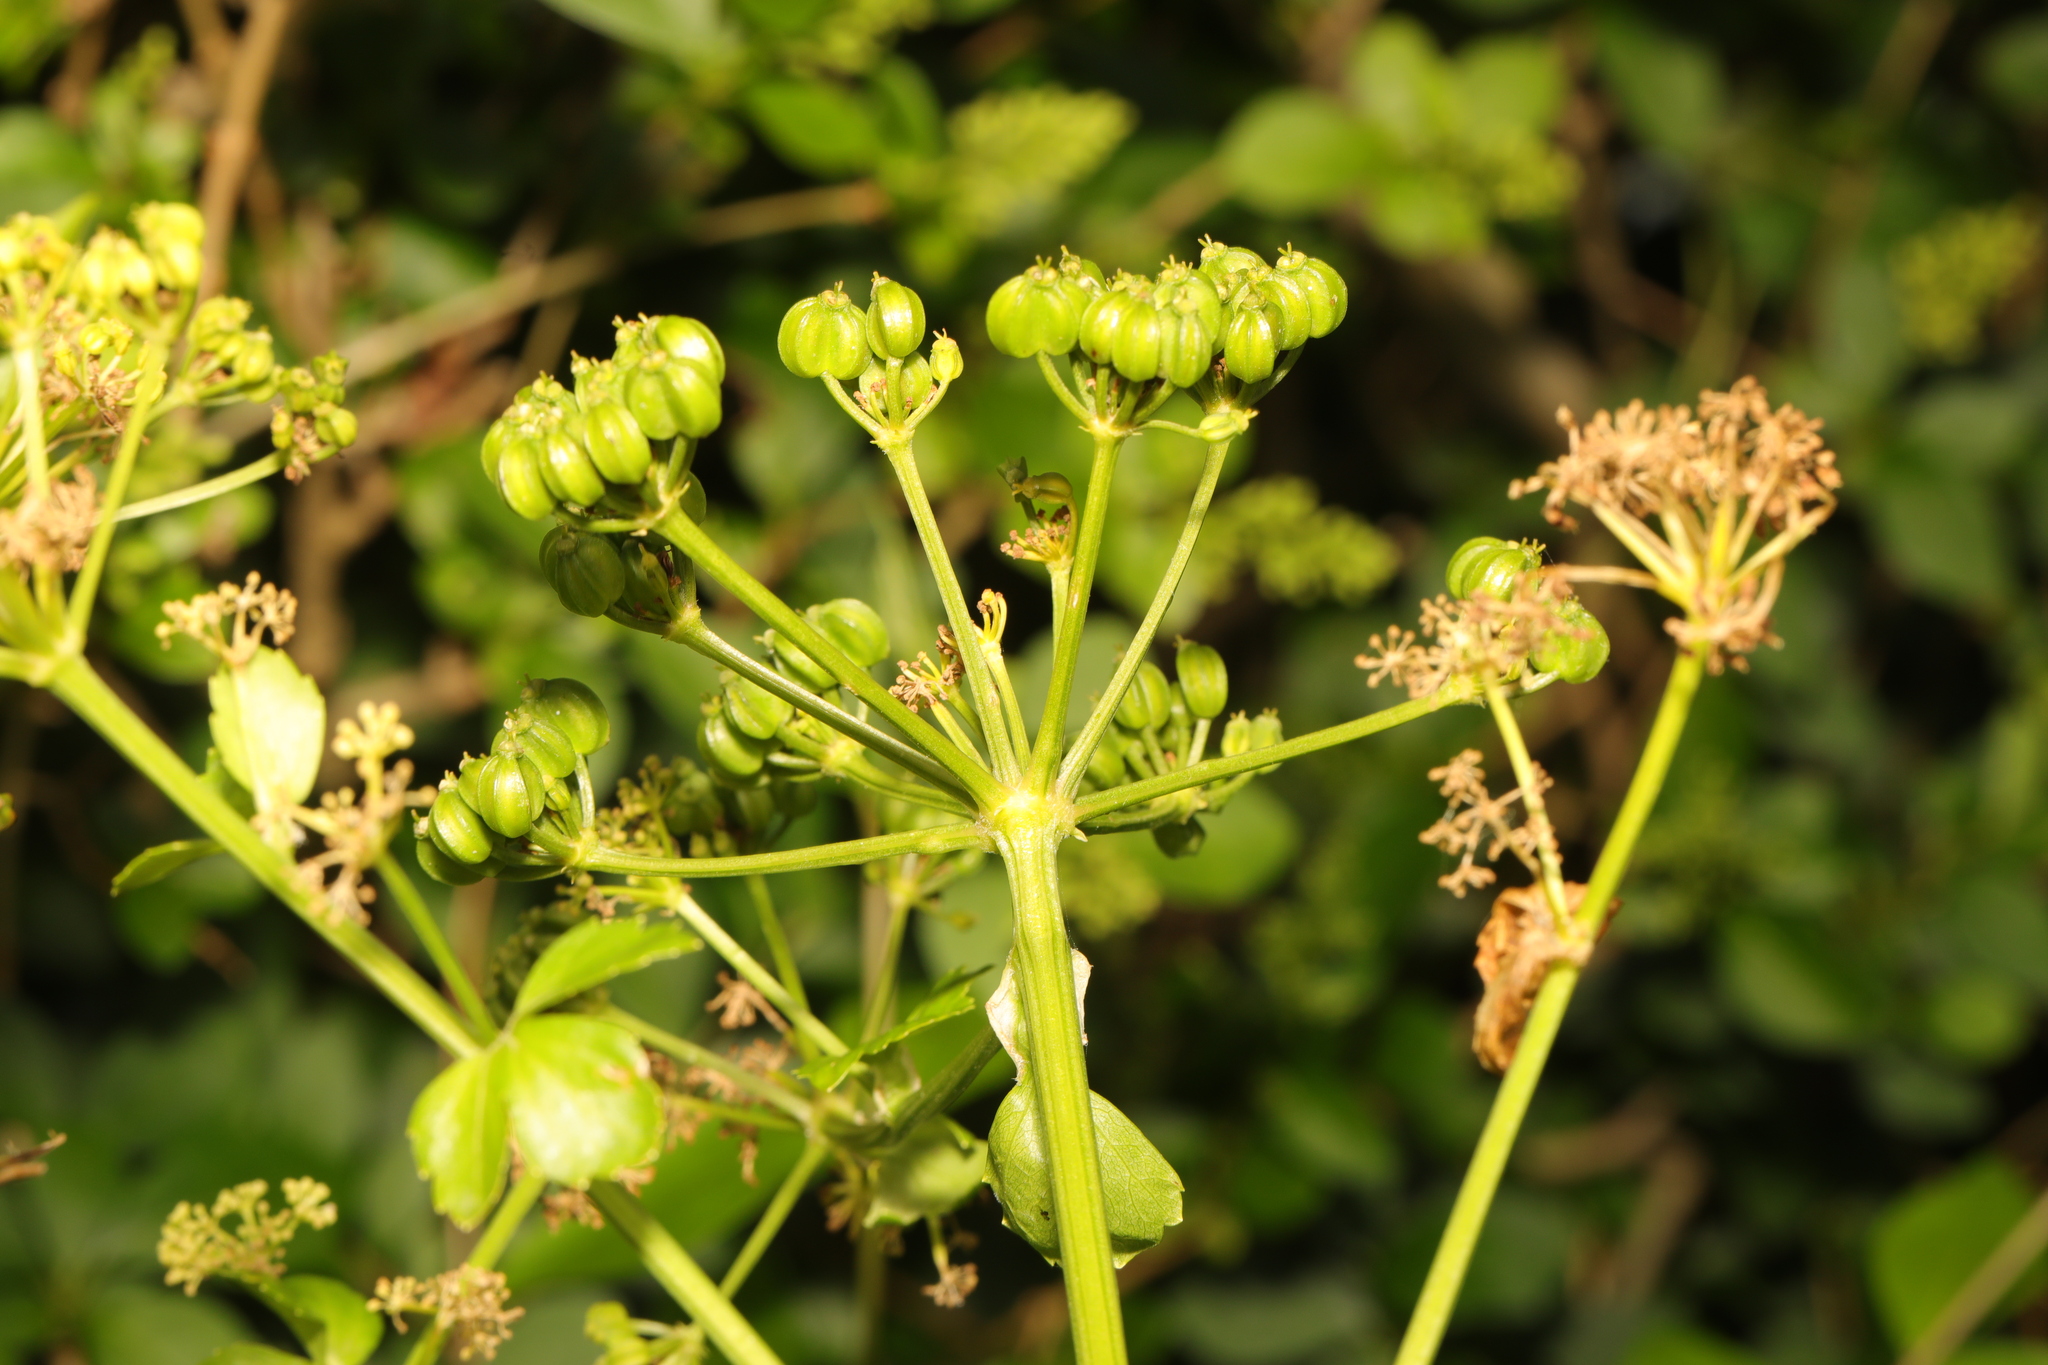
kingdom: Plantae
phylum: Tracheophyta
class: Magnoliopsida
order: Apiales
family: Apiaceae
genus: Smyrnium
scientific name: Smyrnium olusatrum
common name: Alexanders
